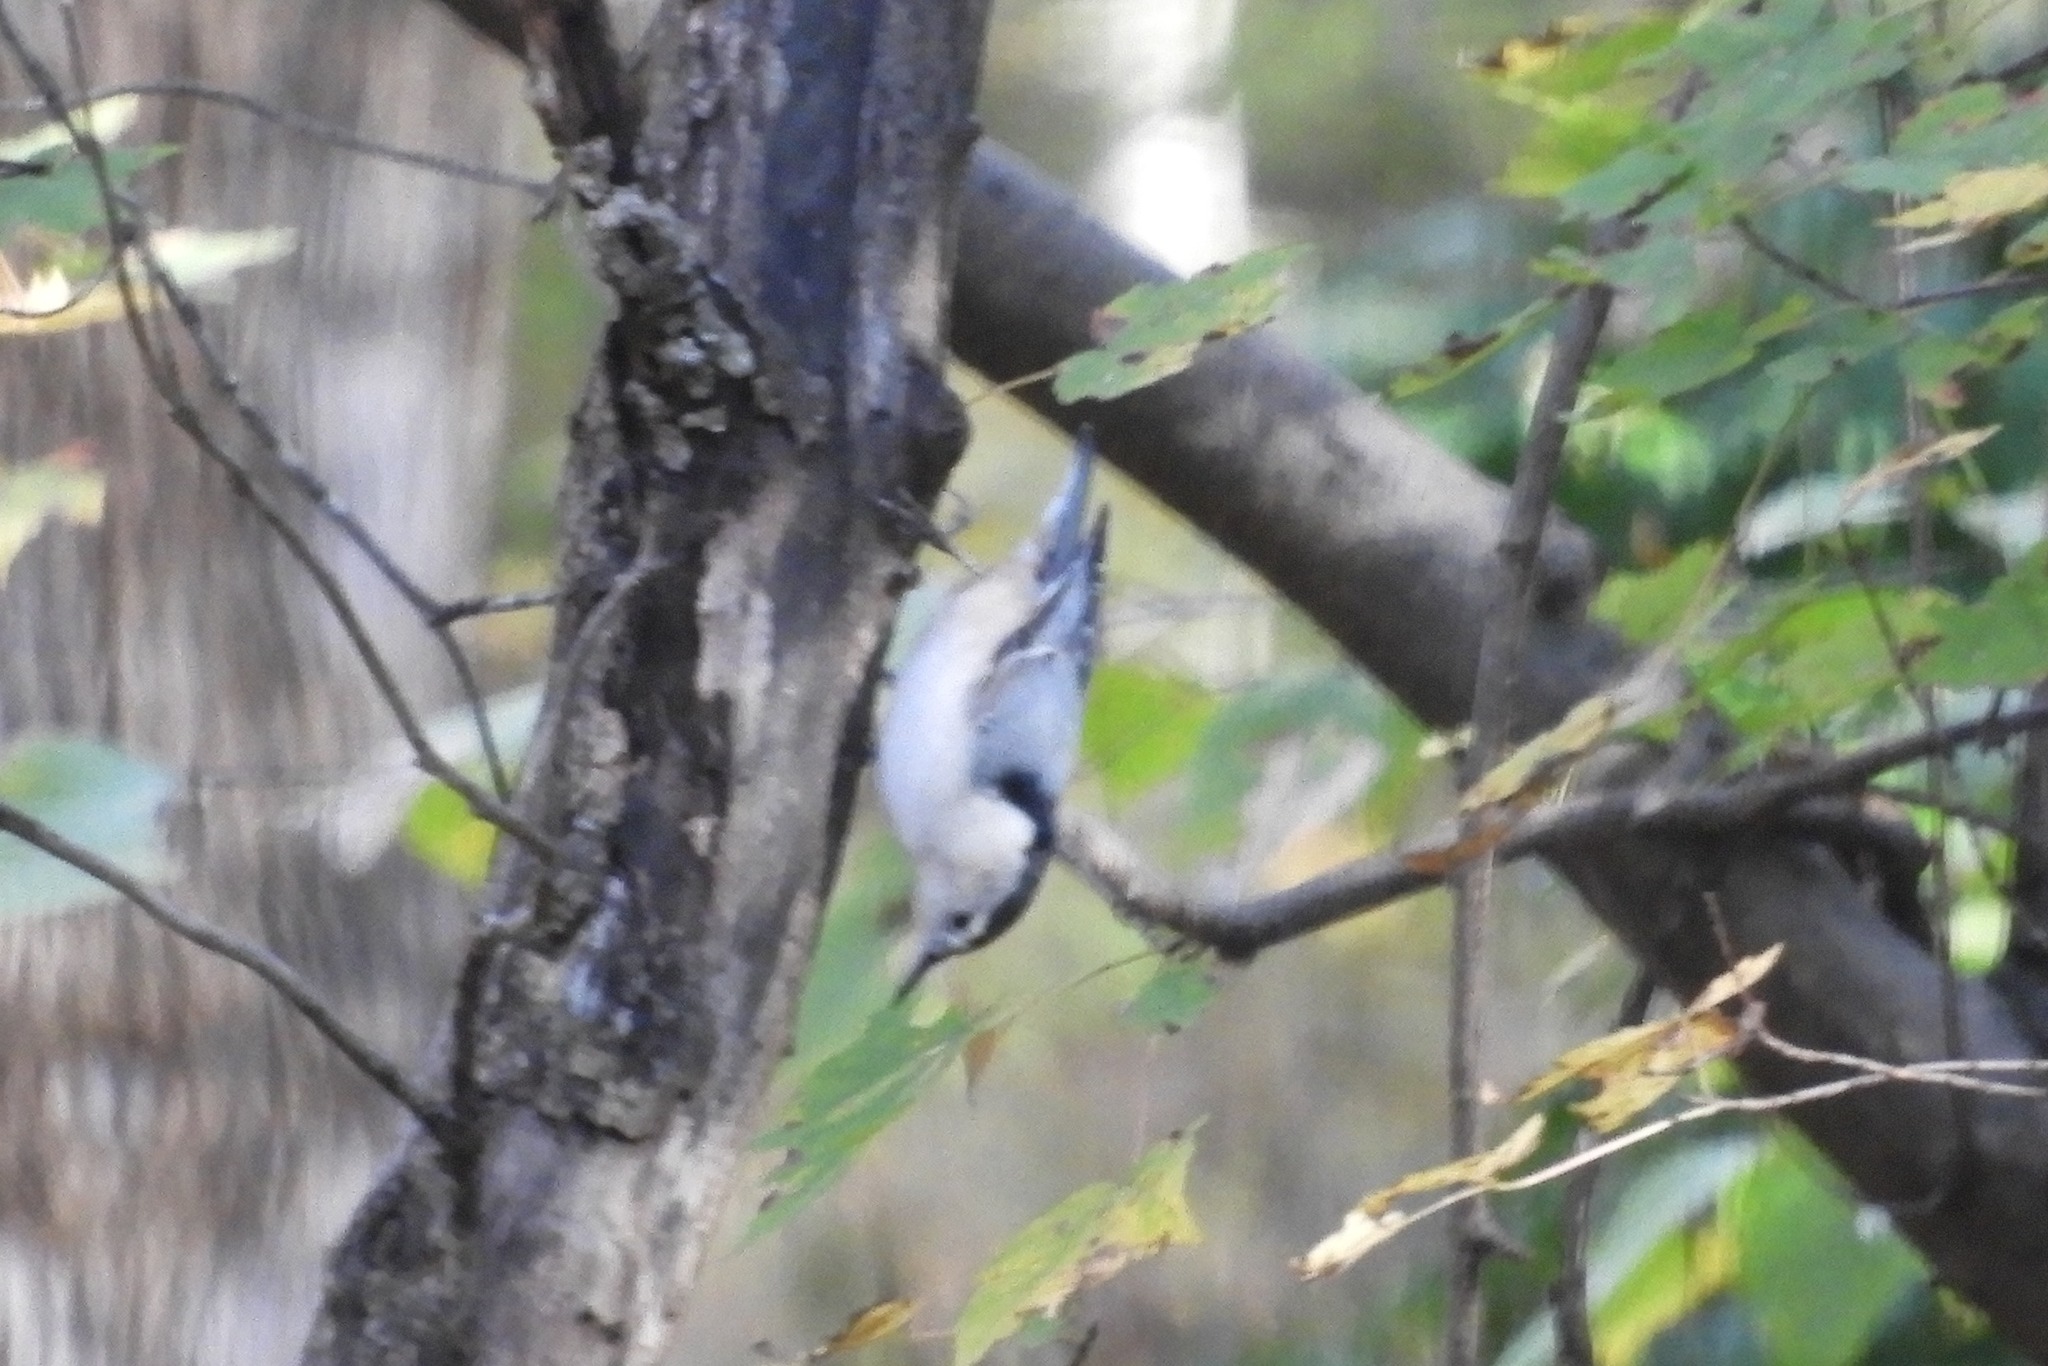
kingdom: Animalia
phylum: Chordata
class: Aves
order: Passeriformes
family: Sittidae
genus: Sitta
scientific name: Sitta carolinensis
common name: White-breasted nuthatch
